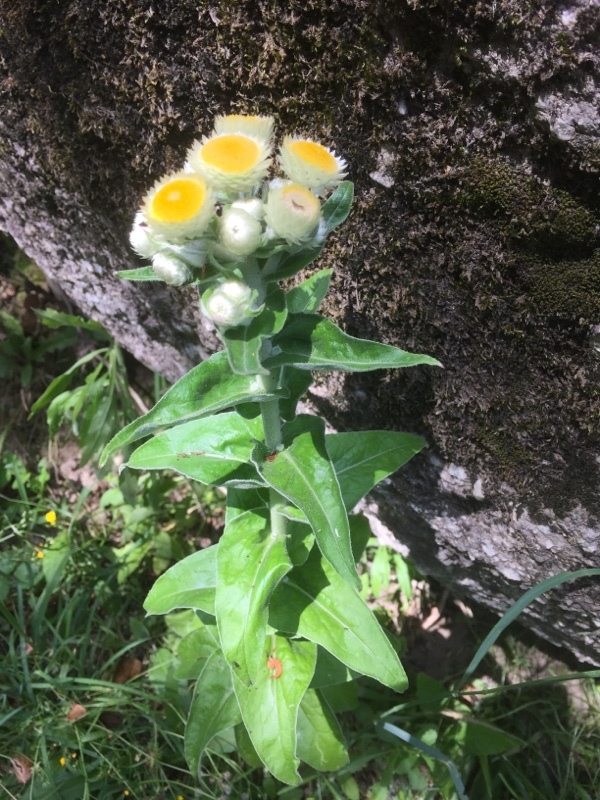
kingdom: Plantae
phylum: Tracheophyta
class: Magnoliopsida
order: Asterales
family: Asteraceae
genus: Helichrysum
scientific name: Helichrysum foetidum
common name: Stinking everlasting
